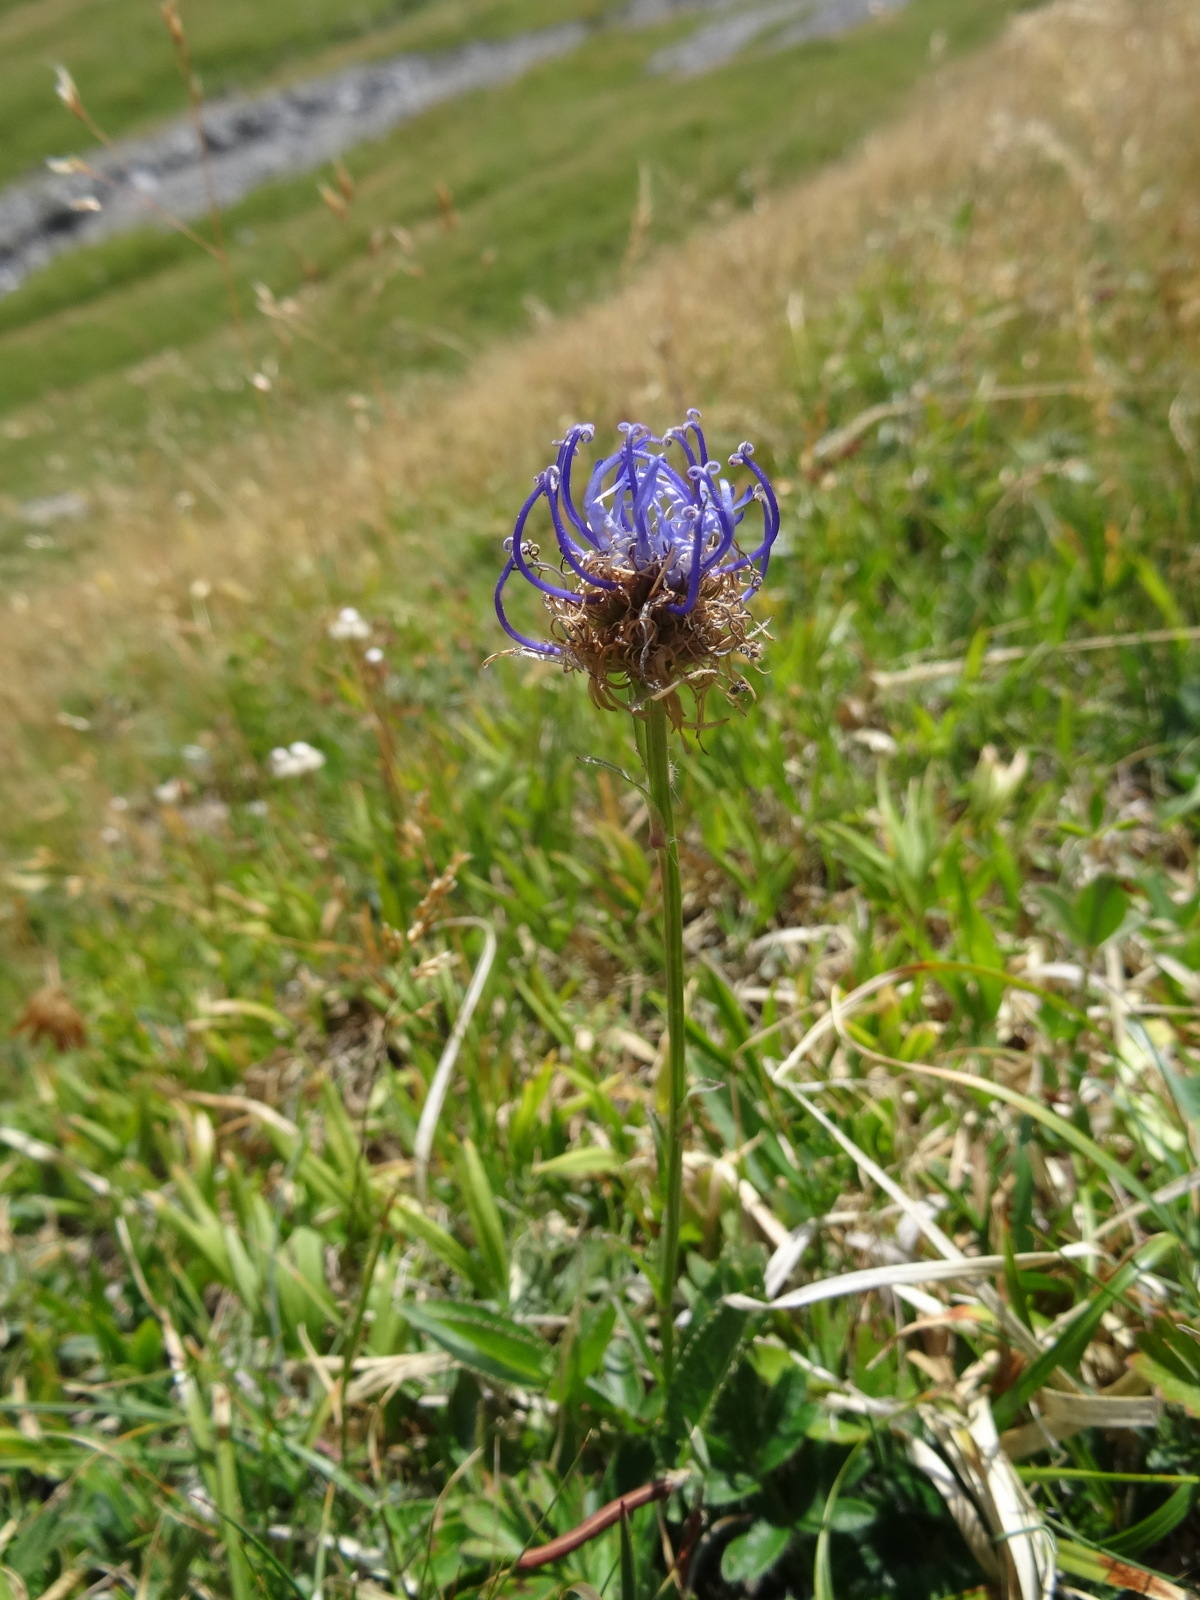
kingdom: Plantae
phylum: Tracheophyta
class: Magnoliopsida
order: Asterales
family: Campanulaceae
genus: Phyteuma
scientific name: Phyteuma orbiculare
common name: Round-headed rampion
